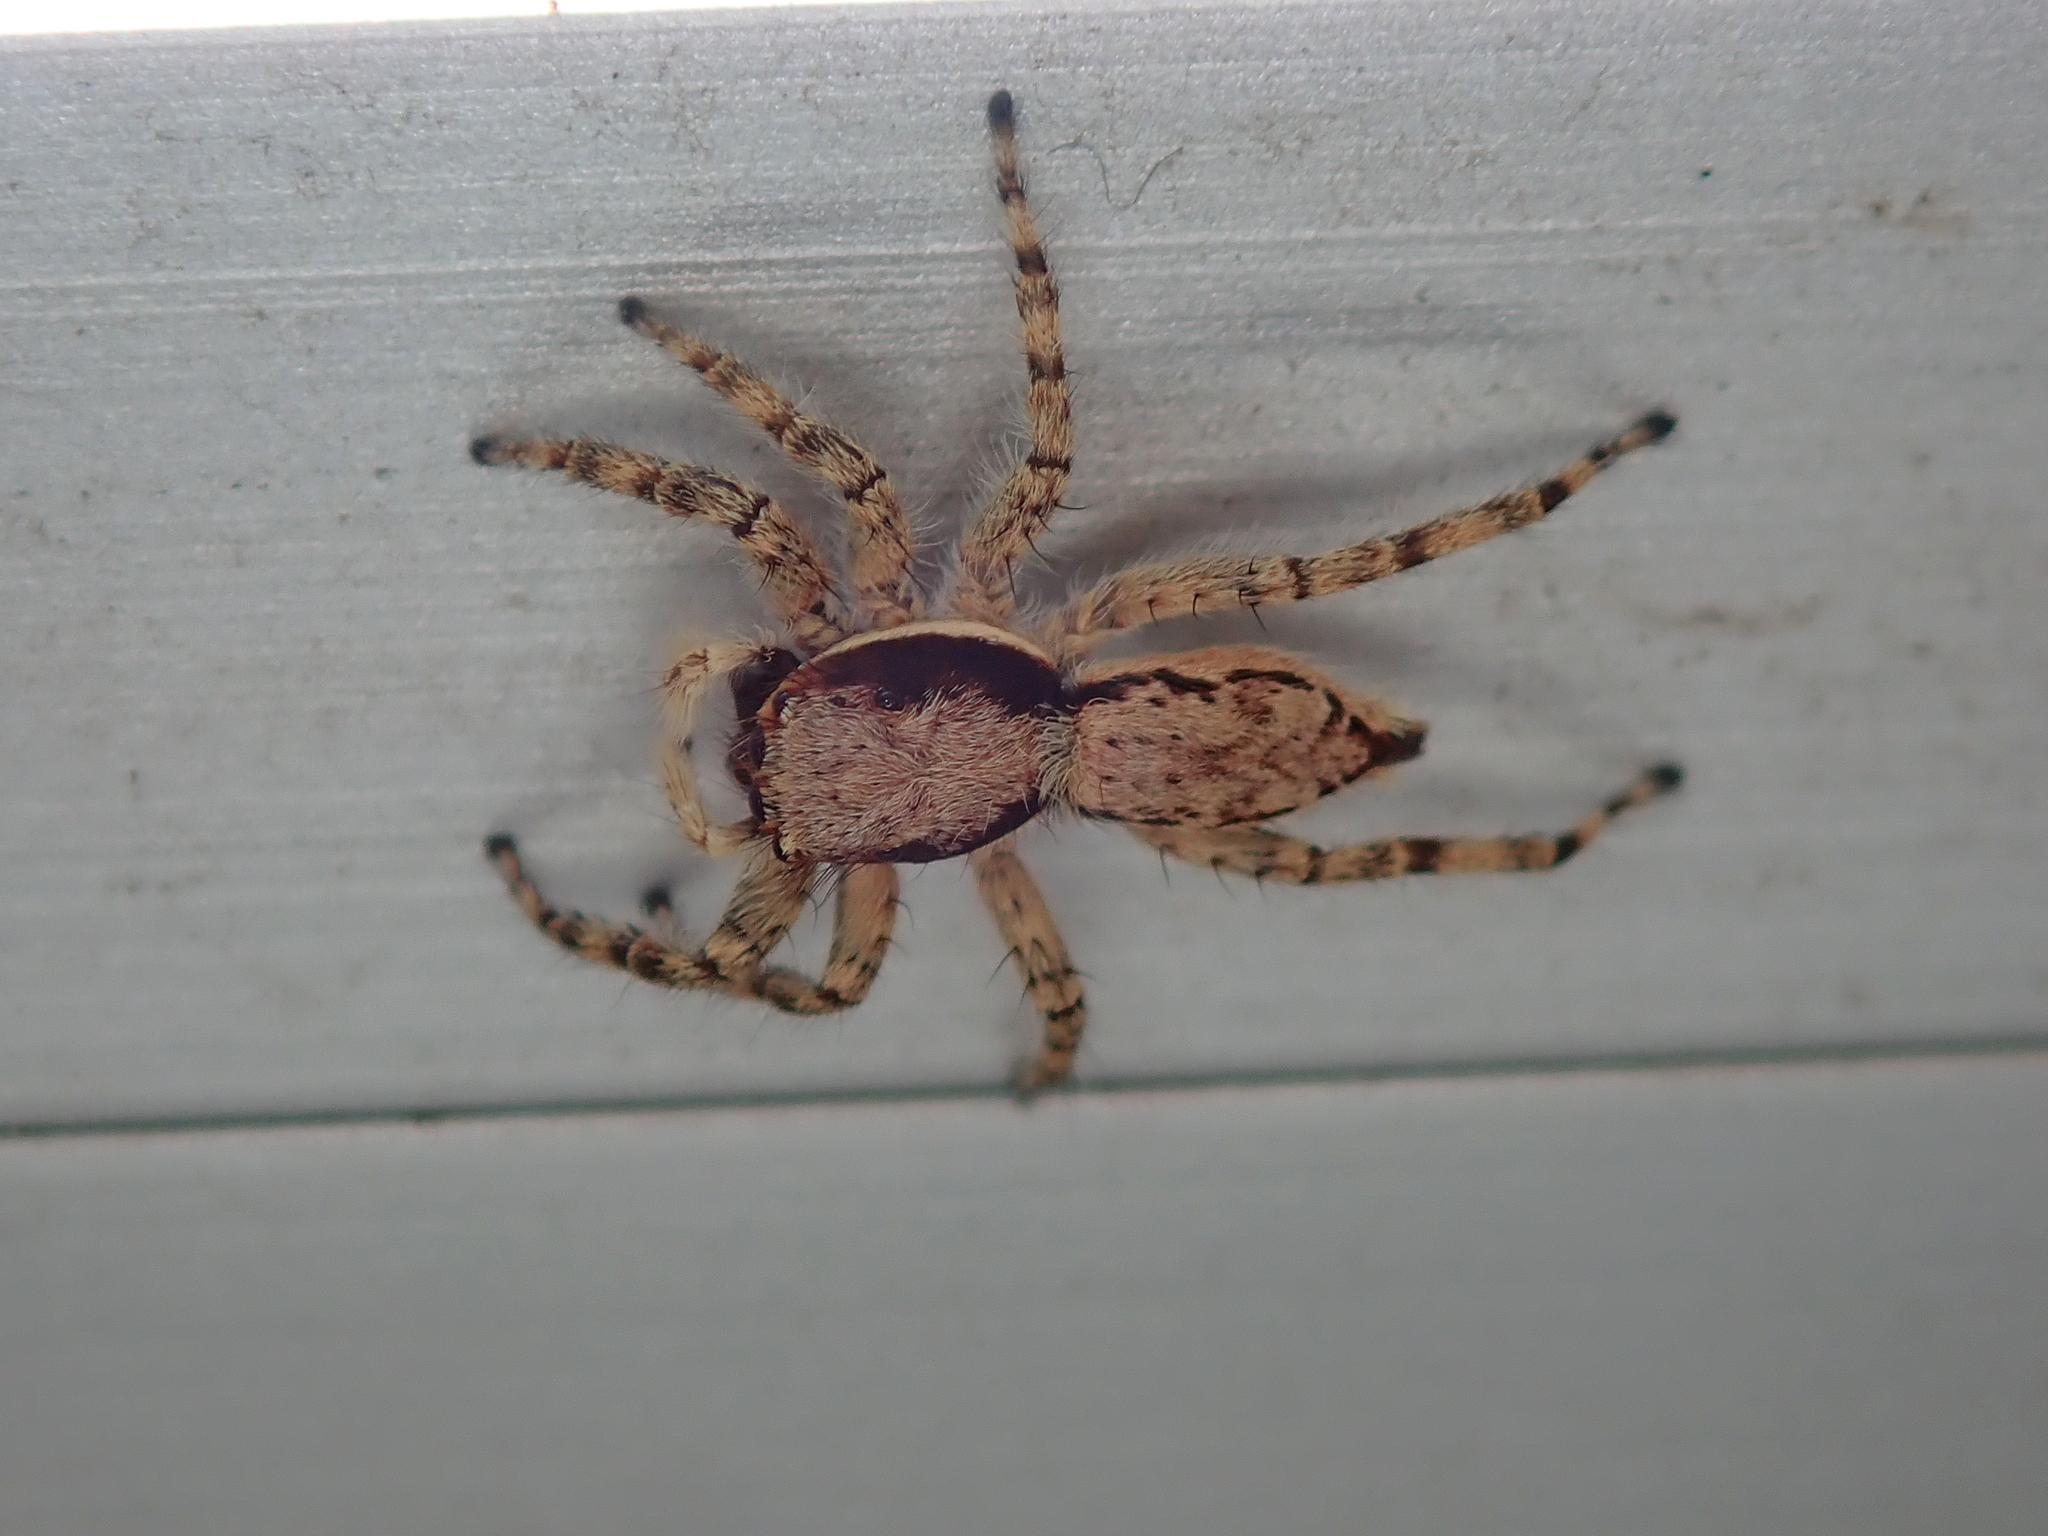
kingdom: Animalia
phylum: Arthropoda
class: Arachnida
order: Araneae
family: Salticidae
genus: Menemerus
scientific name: Menemerus bivittatus
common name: Gray wall jumper
